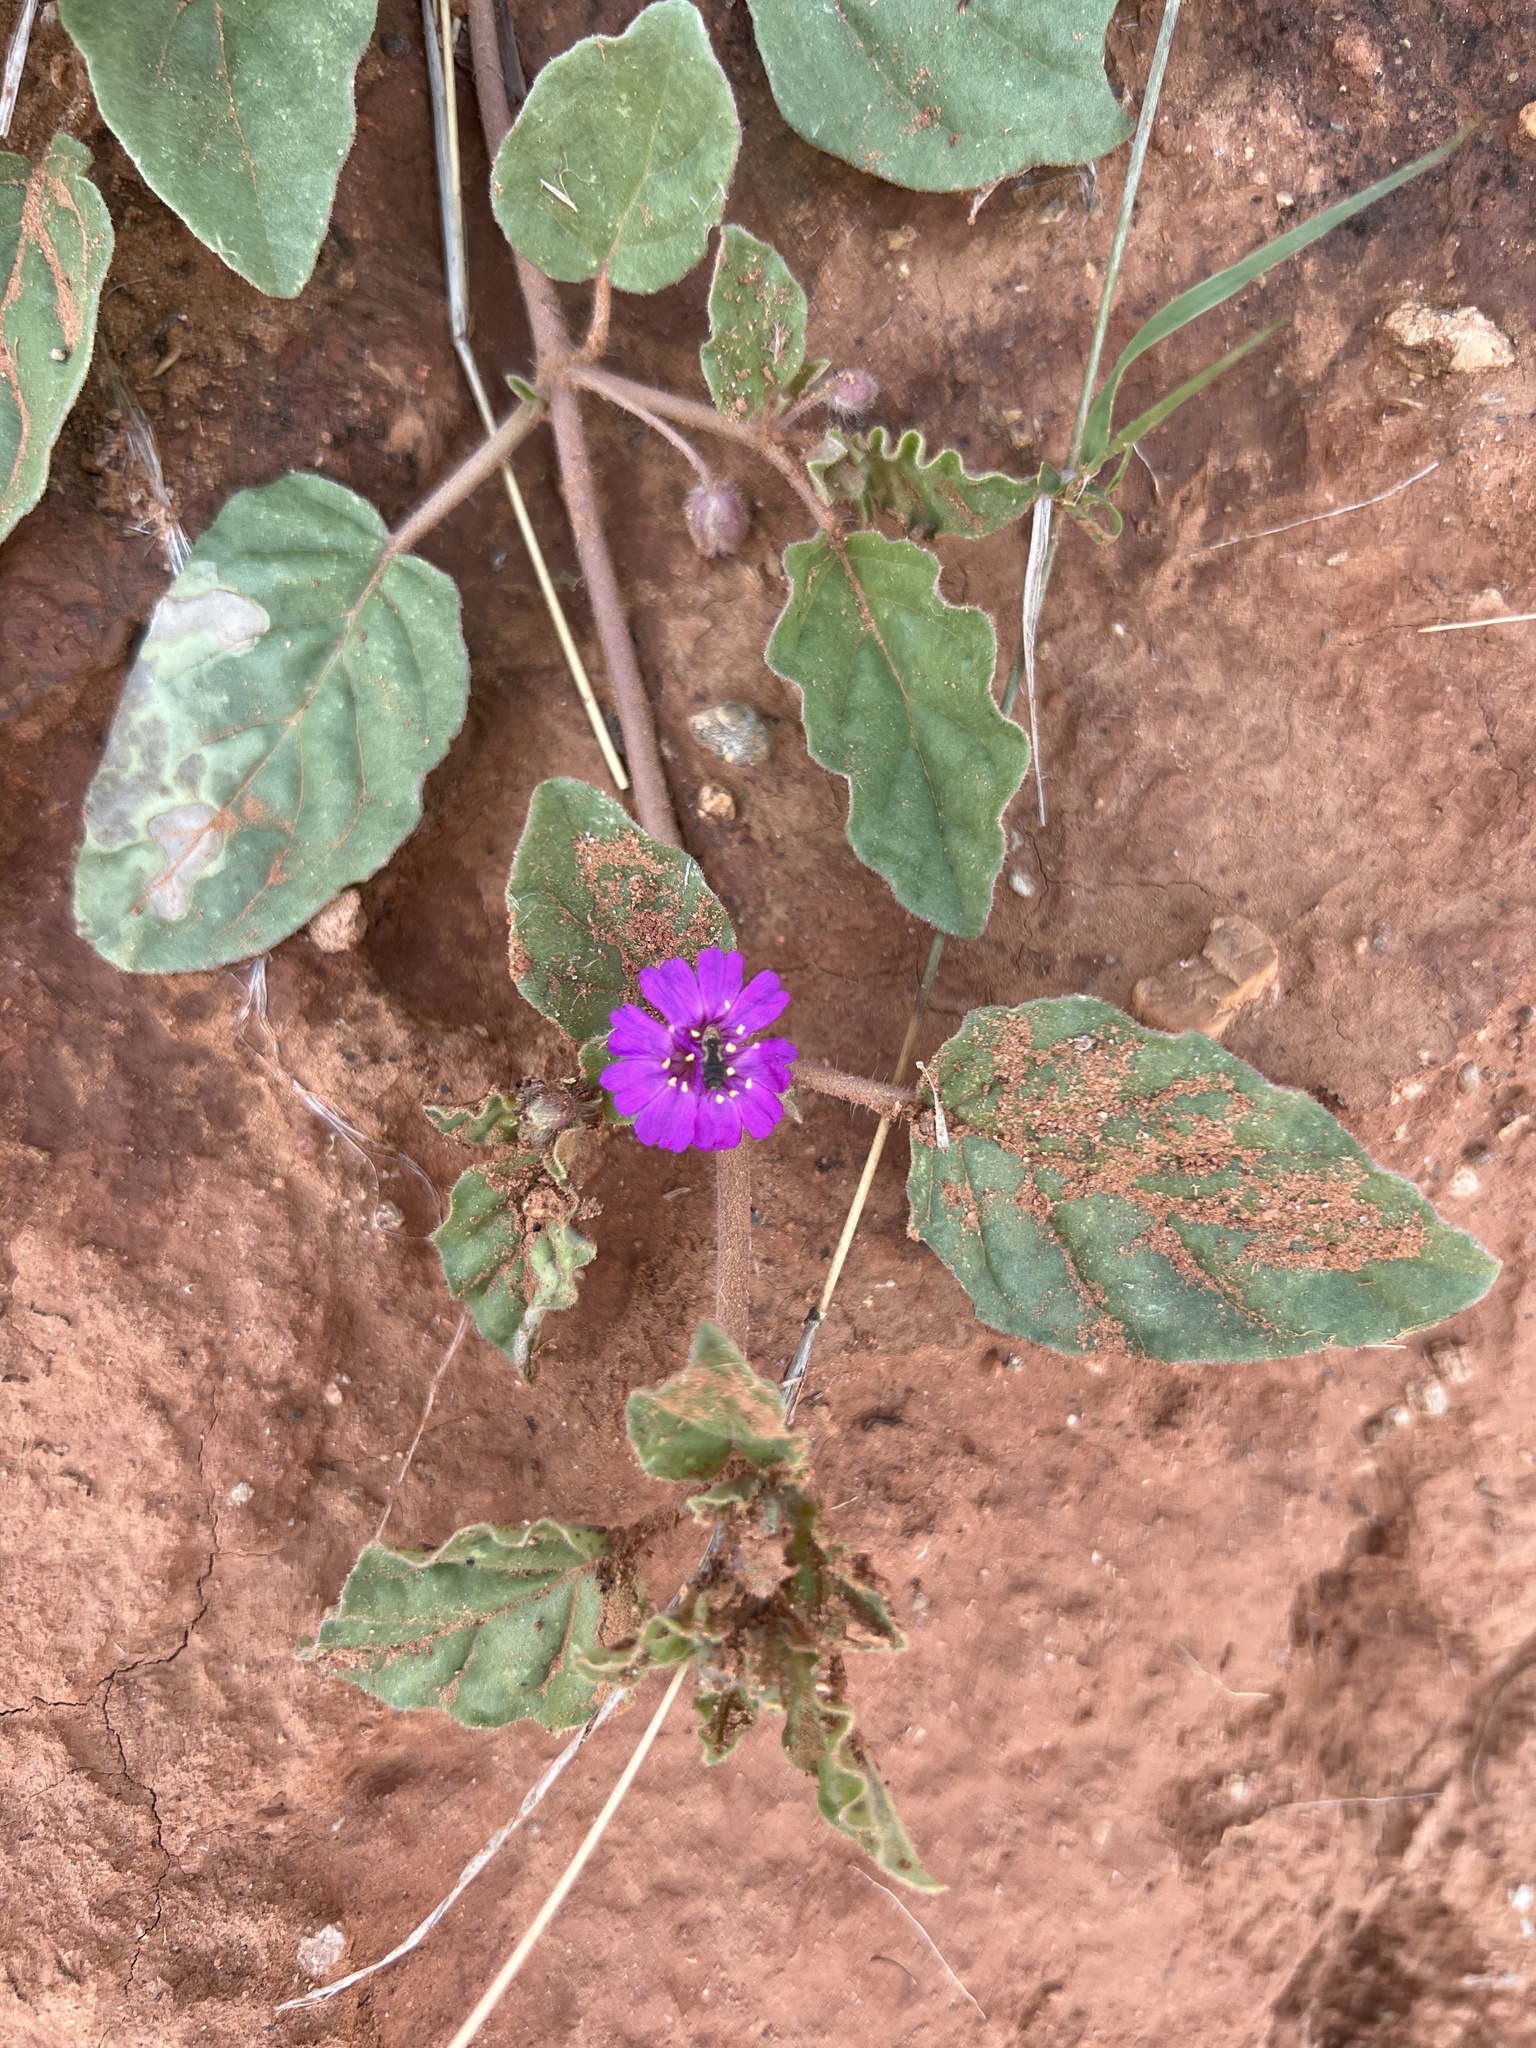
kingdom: Plantae
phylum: Tracheophyta
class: Magnoliopsida
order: Caryophyllales
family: Nyctaginaceae
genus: Allionia
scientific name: Allionia incarnata
